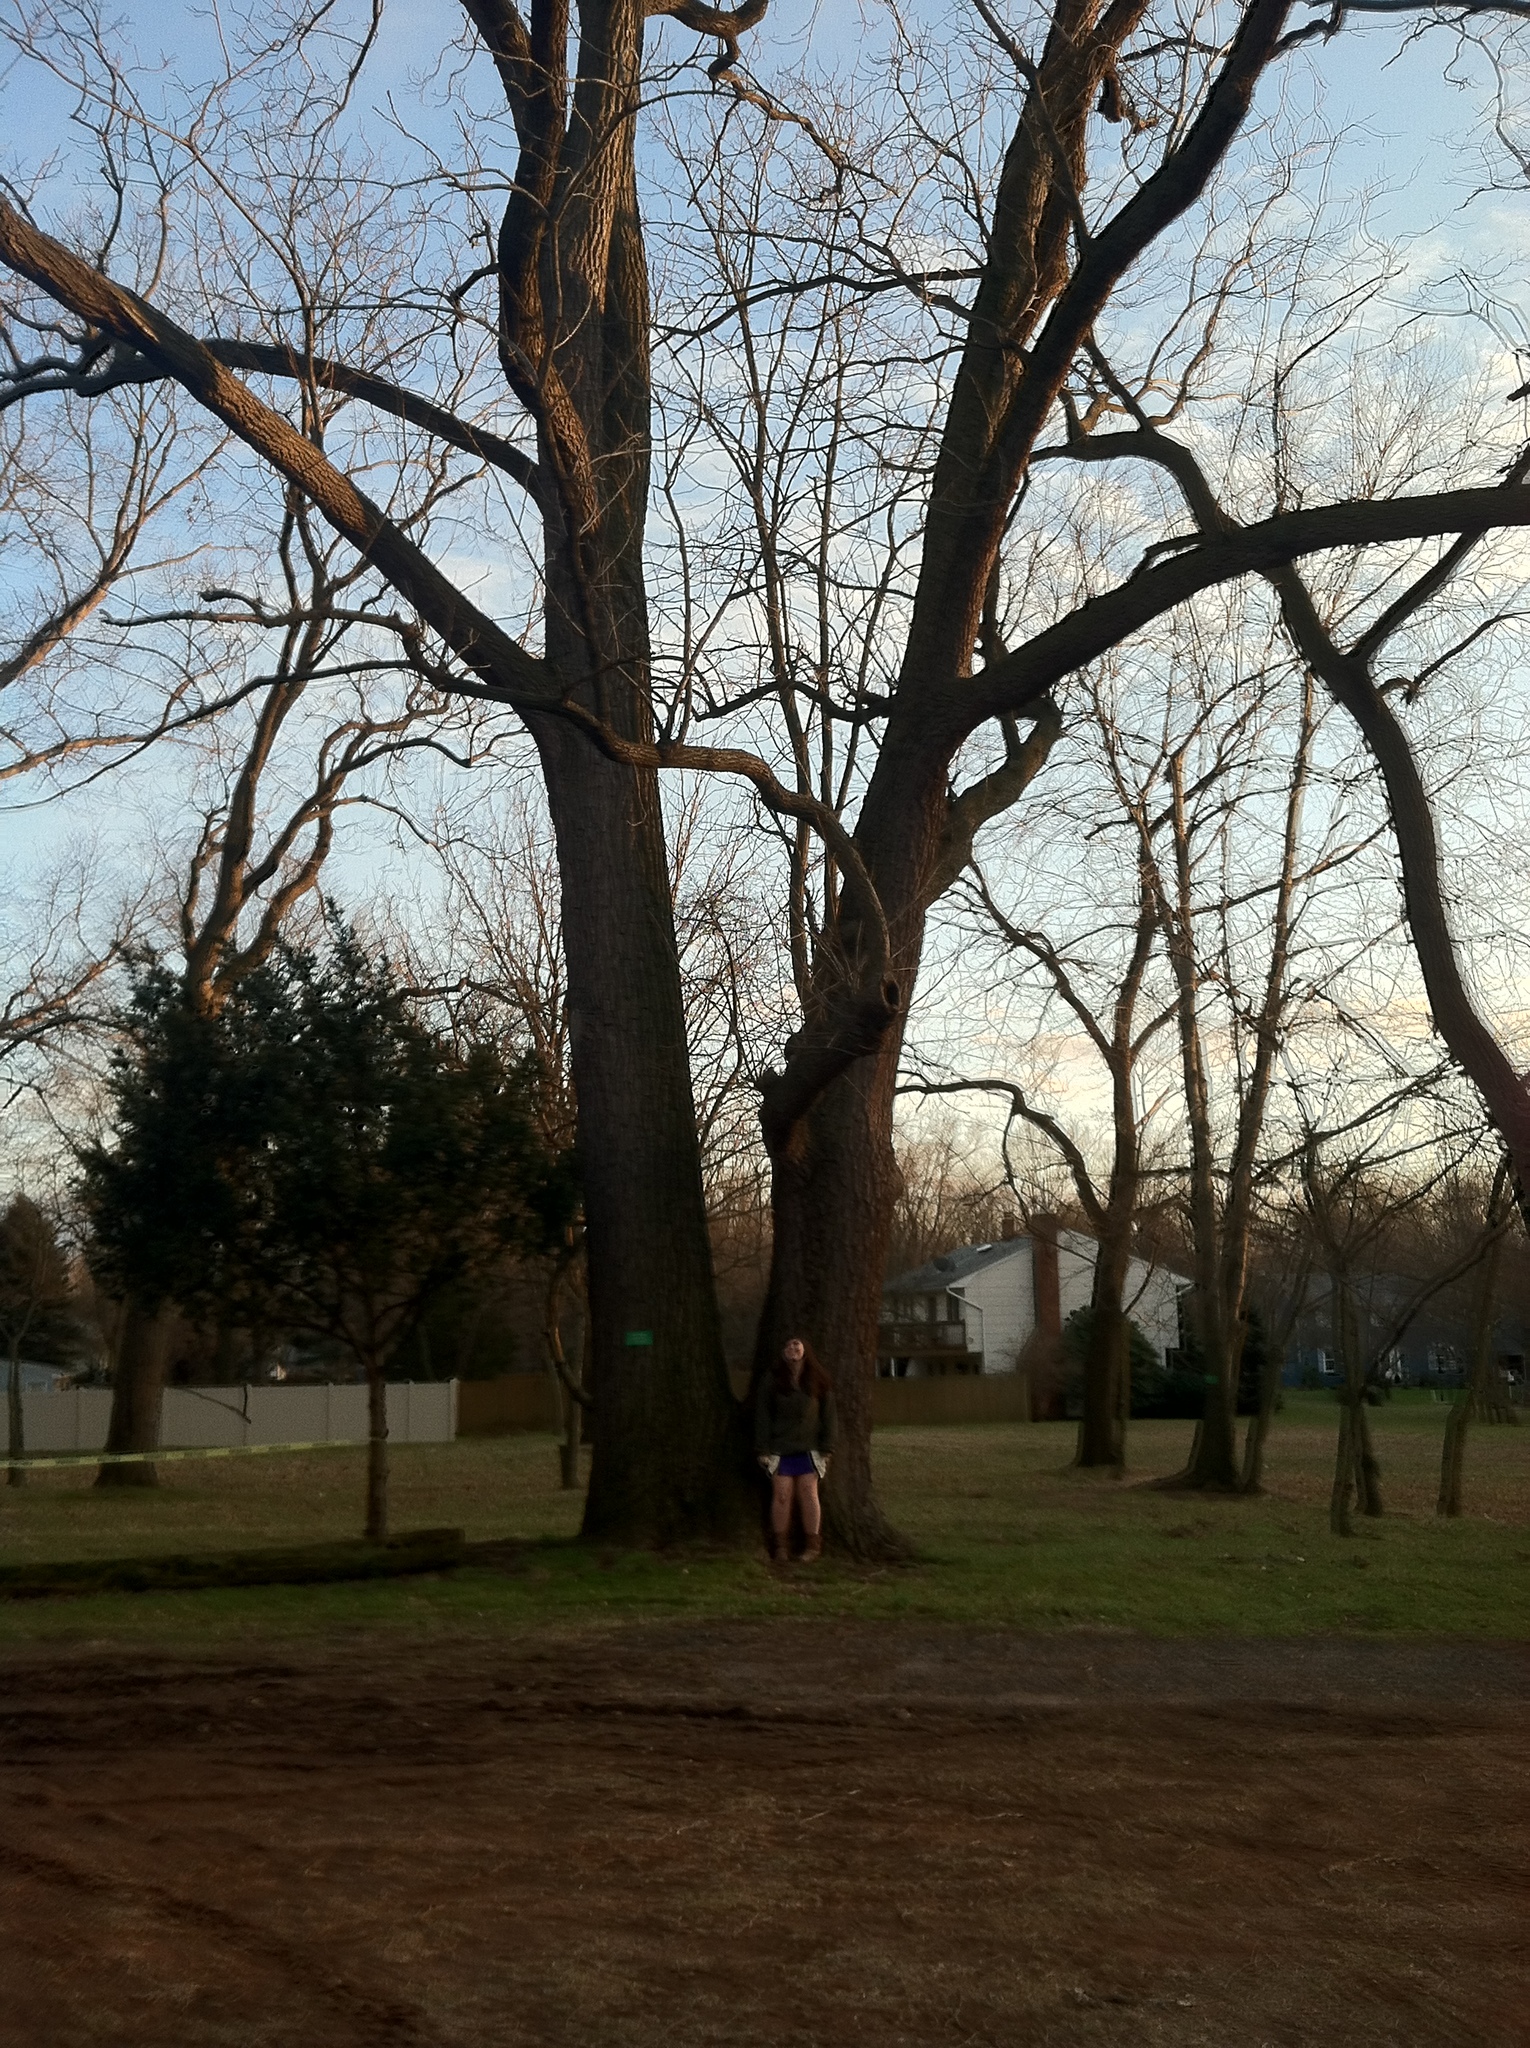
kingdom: Plantae
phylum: Tracheophyta
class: Magnoliopsida
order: Fagales
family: Juglandaceae
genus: Juglans
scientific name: Juglans nigra
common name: Black walnut
